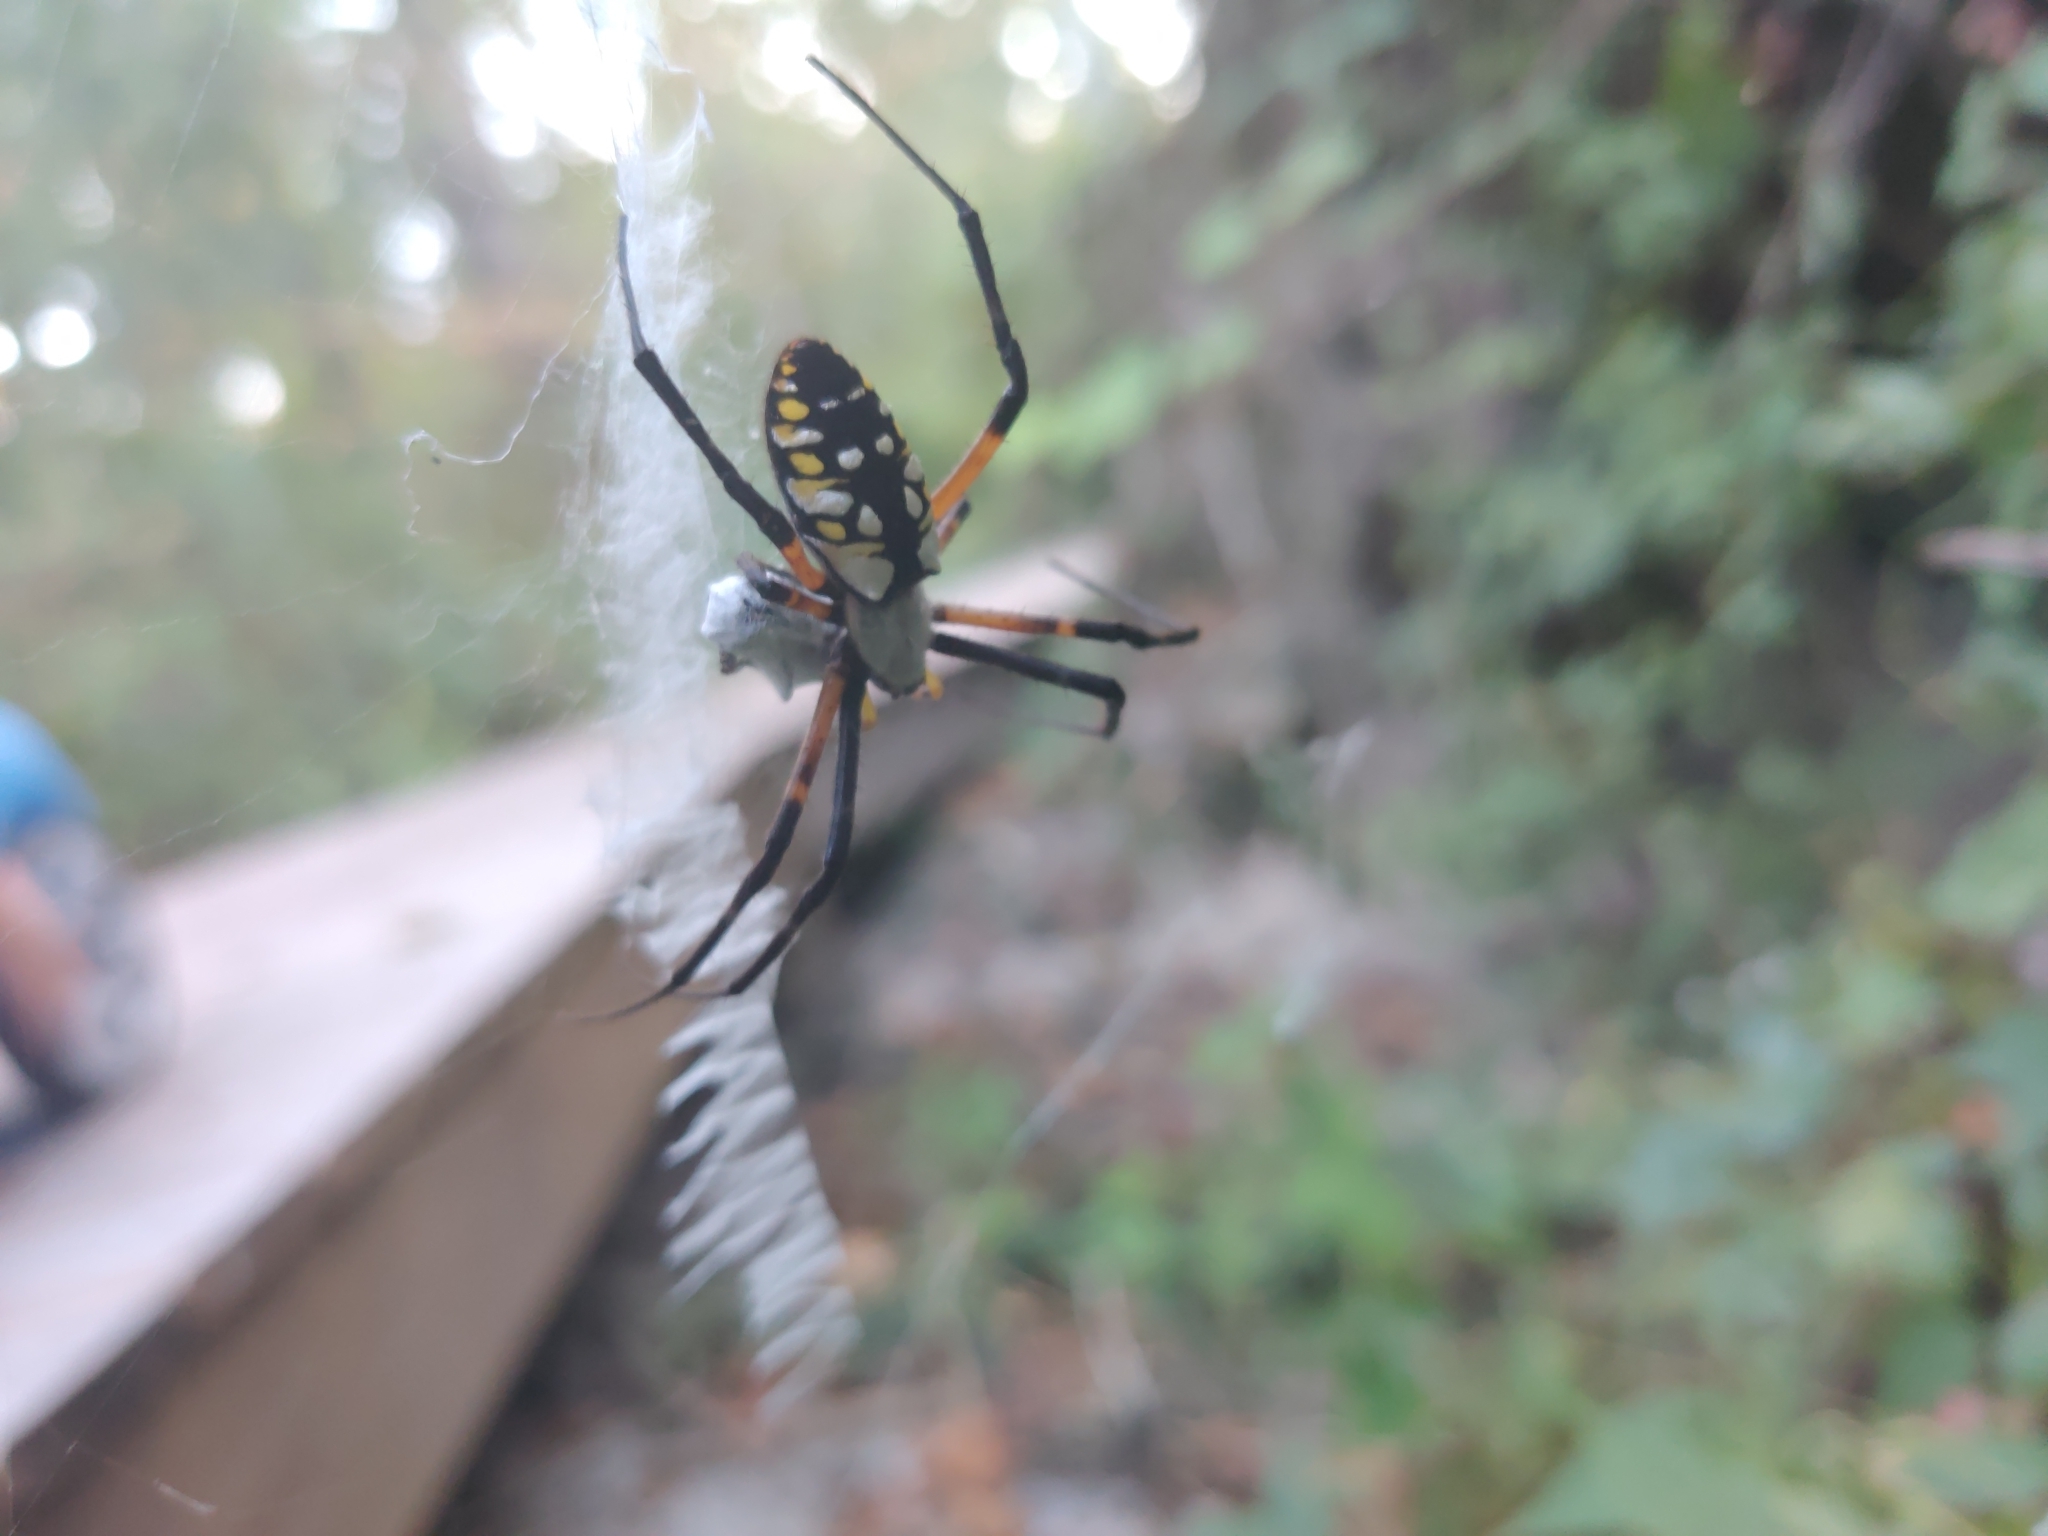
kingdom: Animalia
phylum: Arthropoda
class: Arachnida
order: Araneae
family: Araneidae
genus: Argiope
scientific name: Argiope aurantia
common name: Orb weavers
